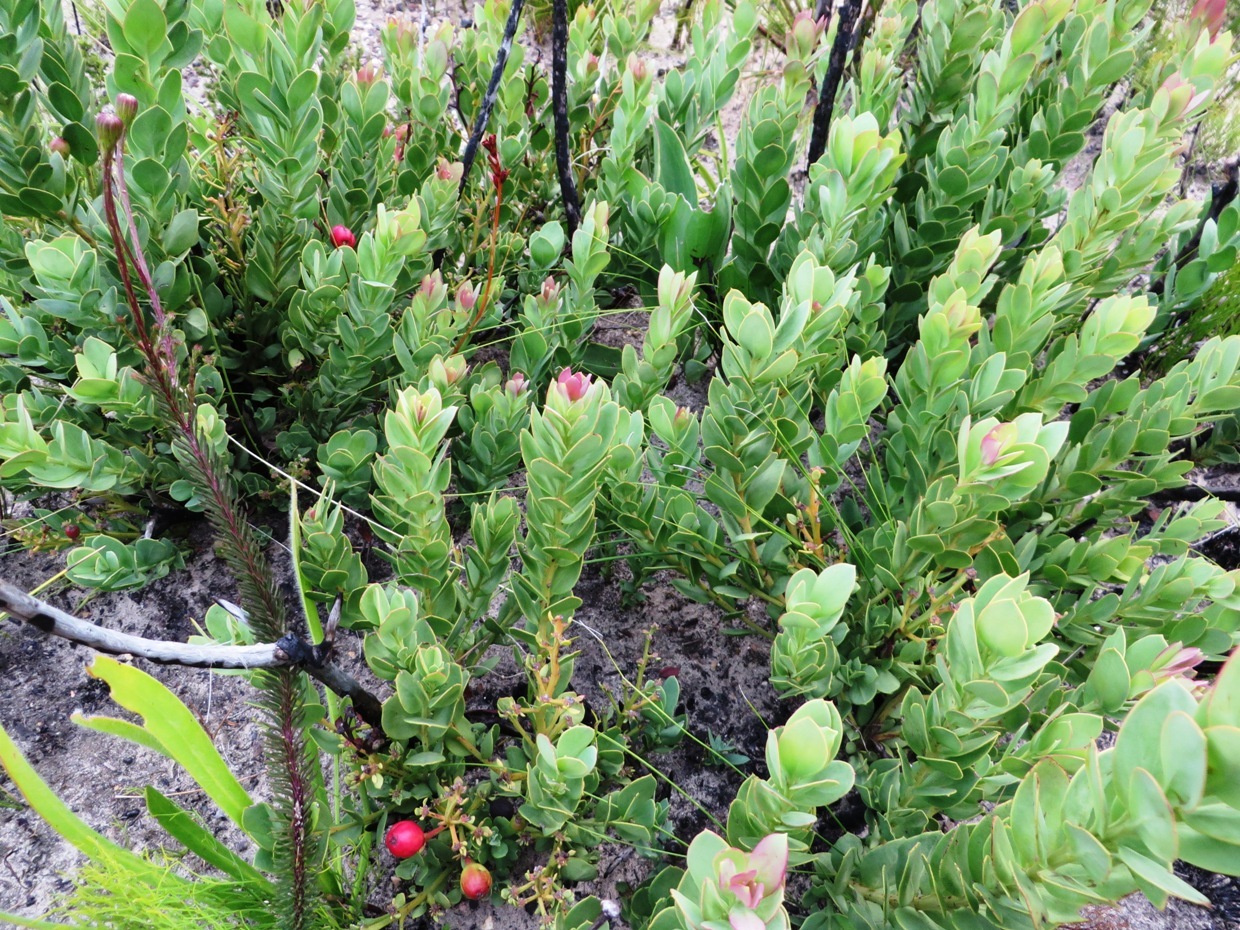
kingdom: Plantae
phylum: Tracheophyta
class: Magnoliopsida
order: Santalales
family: Santalaceae
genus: Osyris
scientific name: Osyris speciosa
